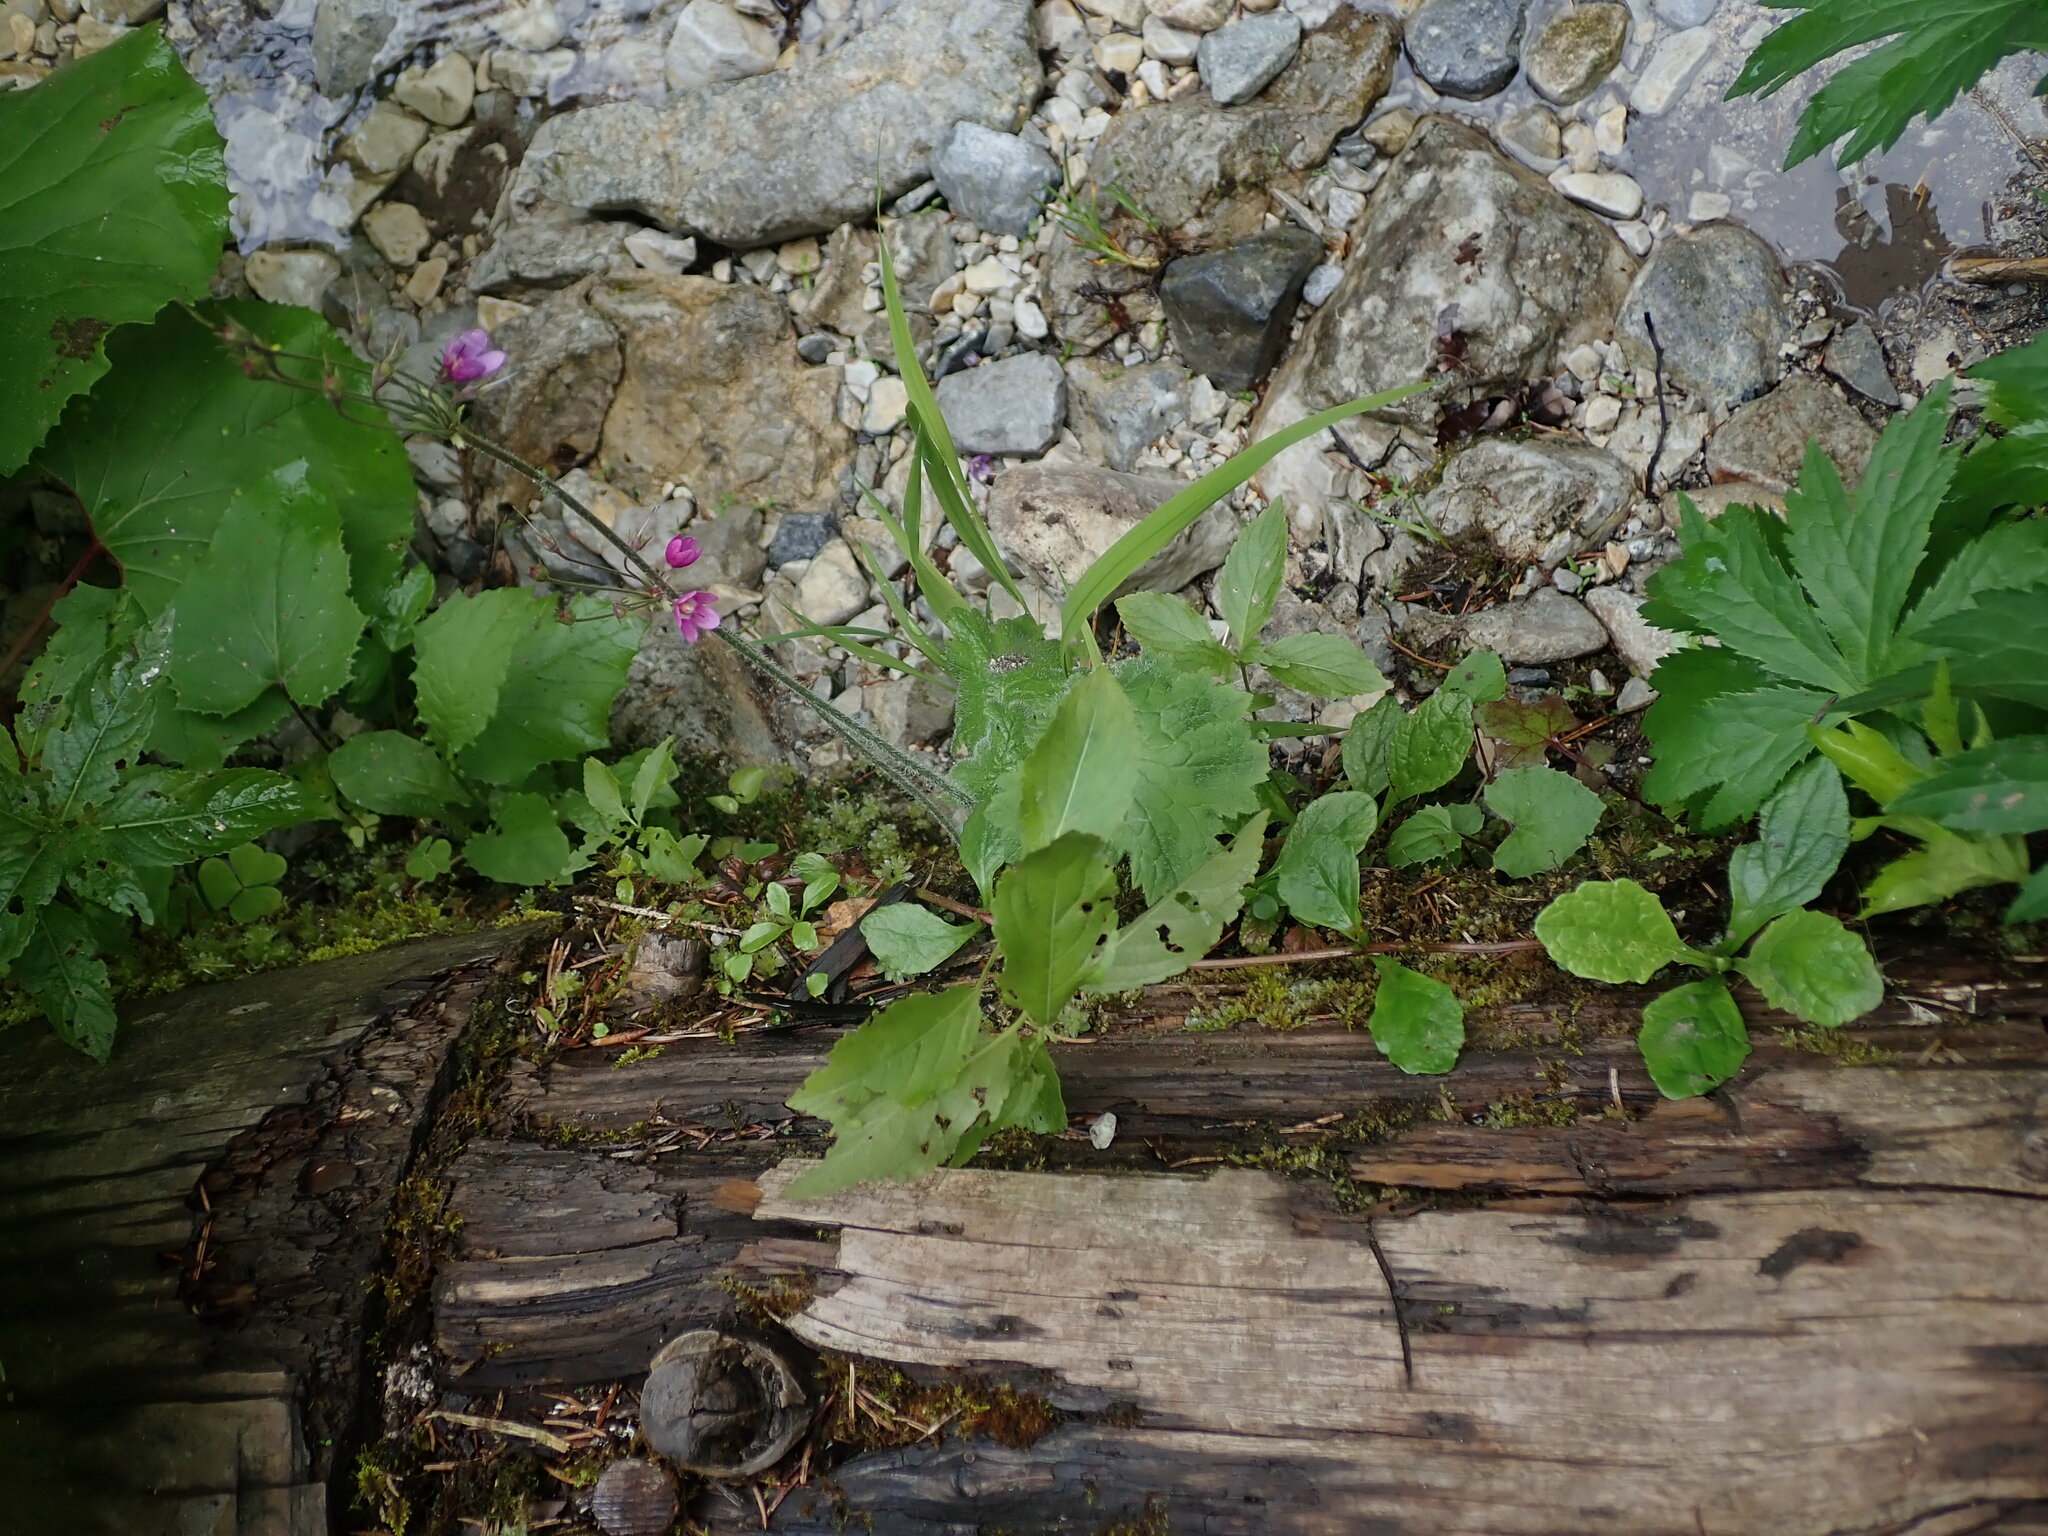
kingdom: Plantae
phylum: Tracheophyta
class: Magnoliopsida
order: Ericales
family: Primulaceae
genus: Primula
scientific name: Primula matthioli
